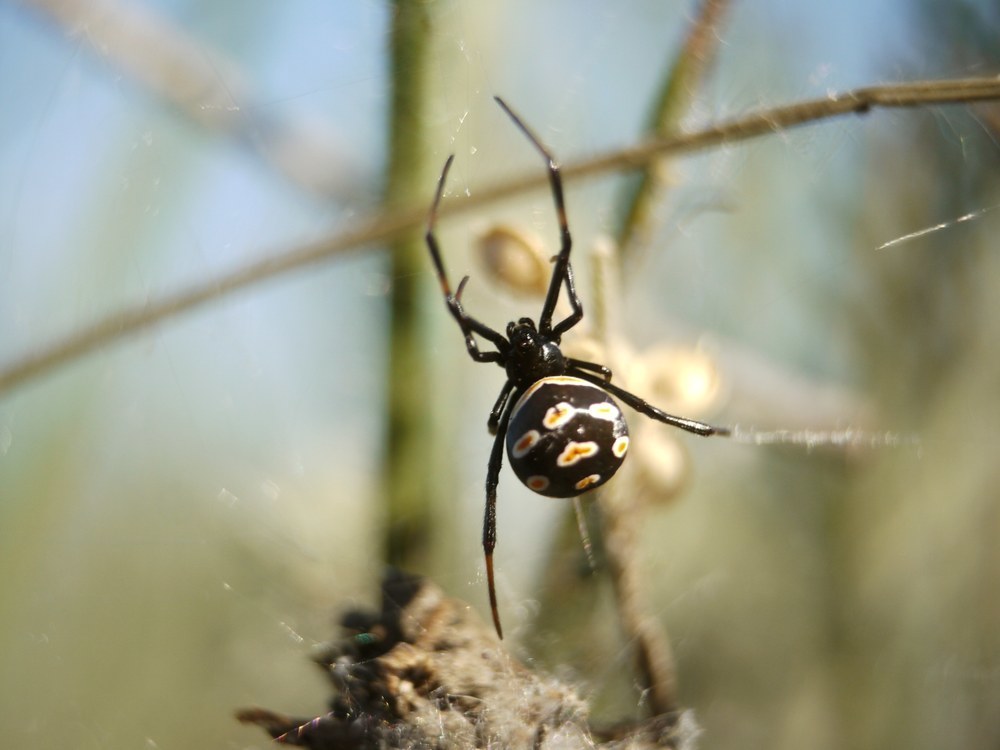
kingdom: Animalia
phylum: Arthropoda
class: Arachnida
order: Araneae
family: Theridiidae
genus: Latrodectus
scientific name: Latrodectus tredecimguttatus
